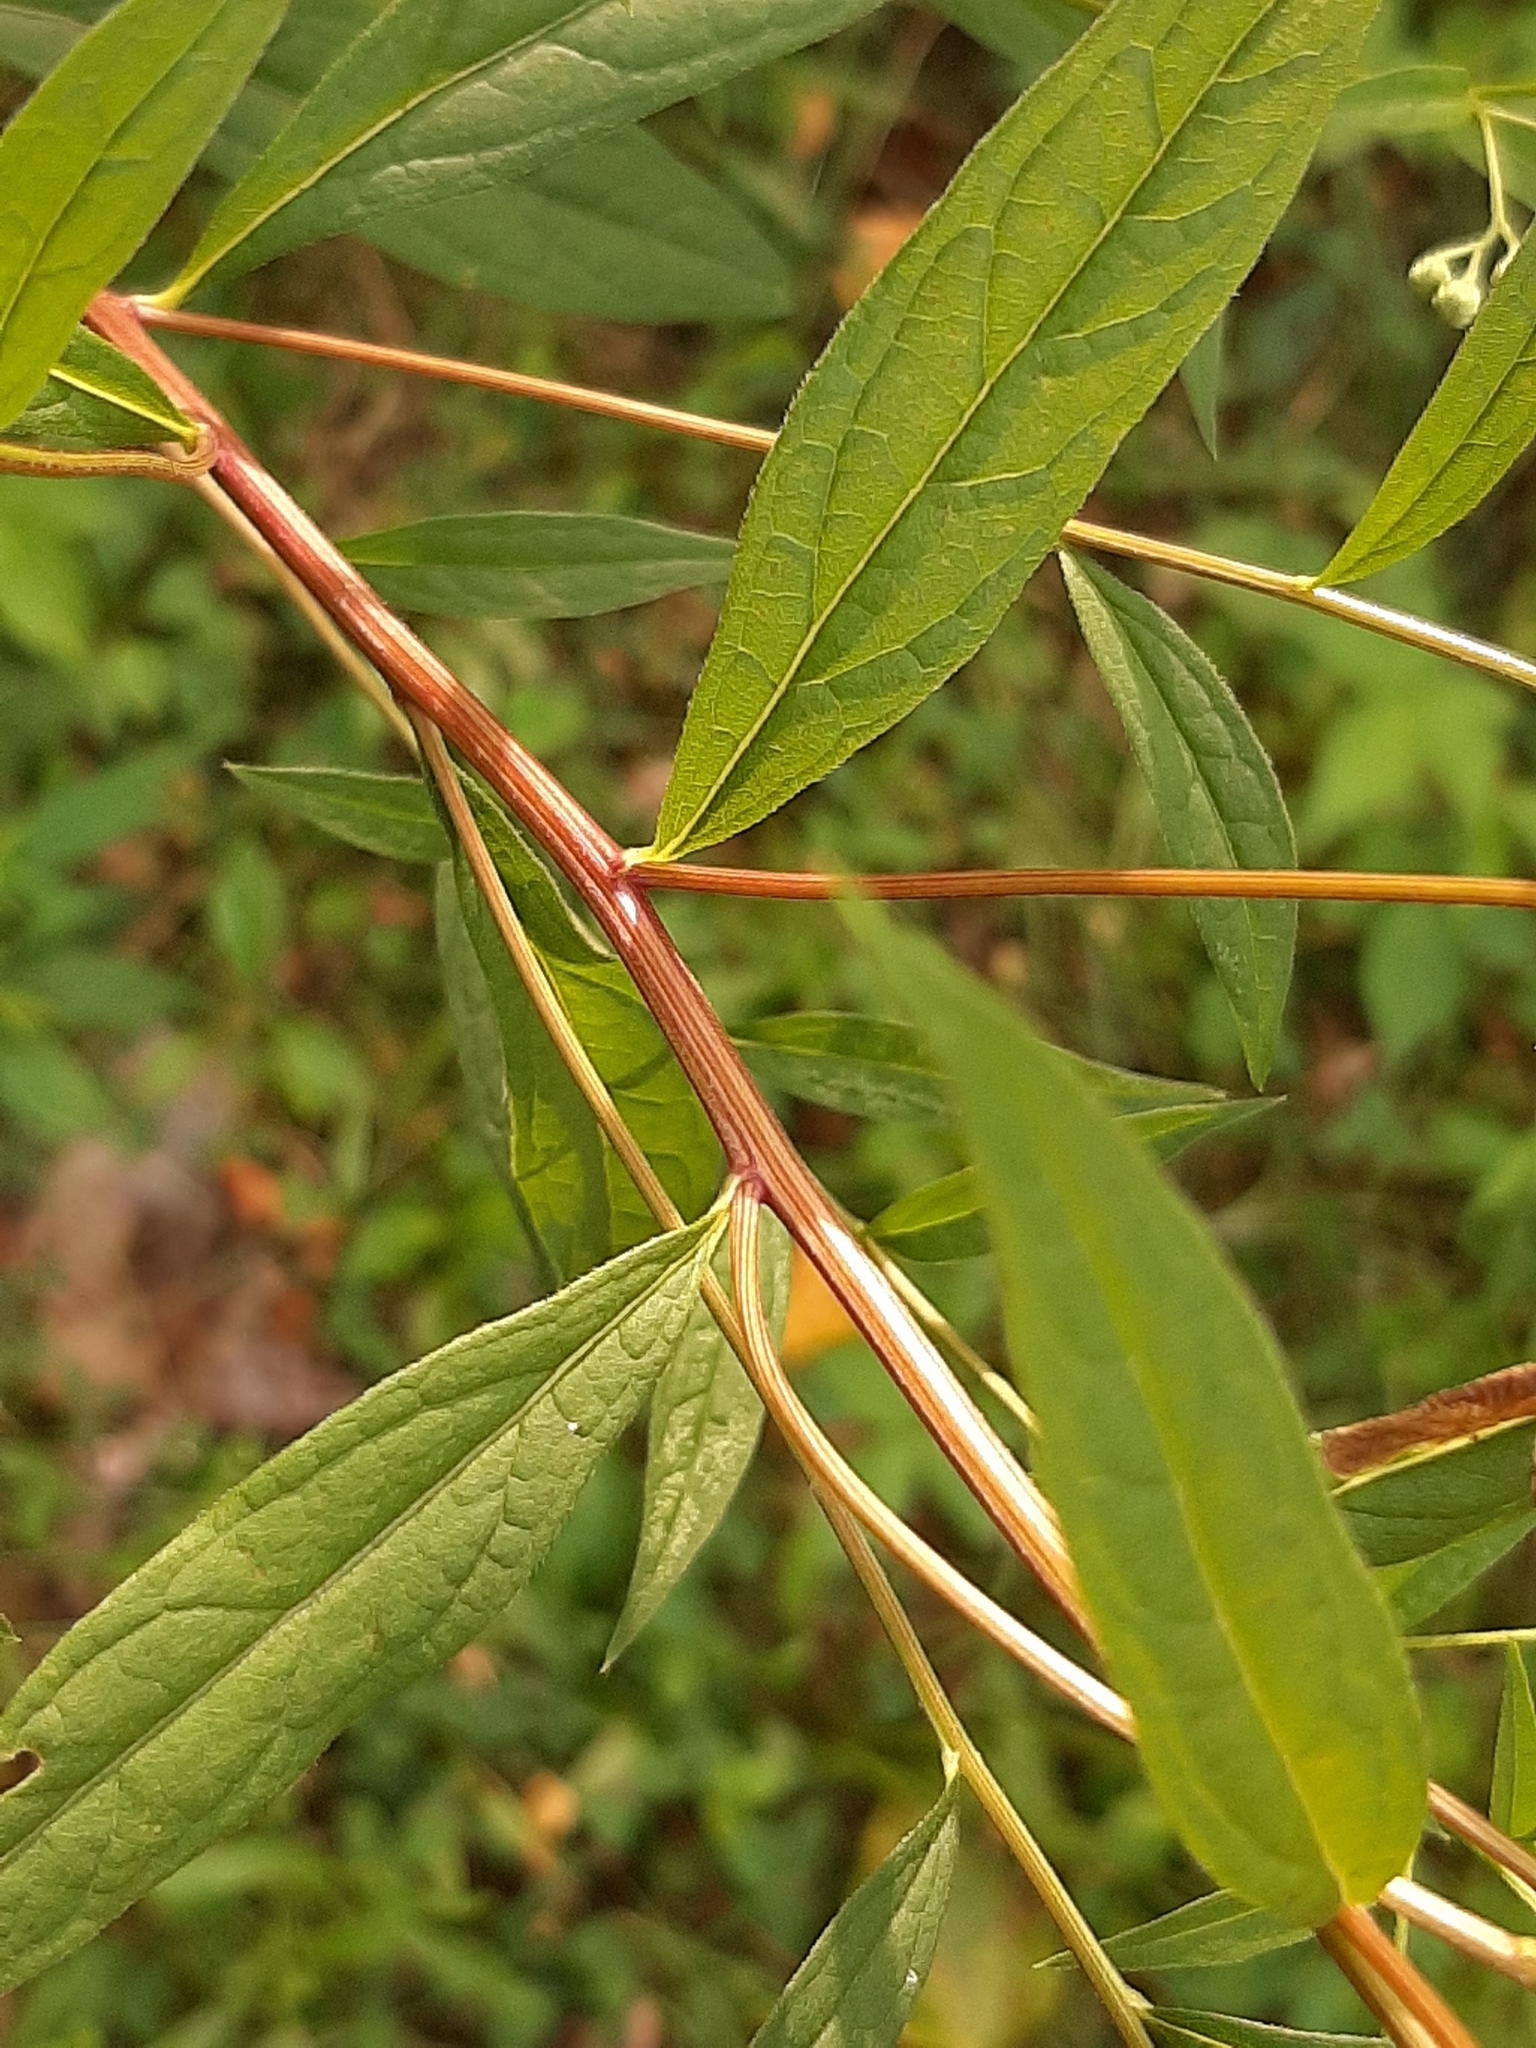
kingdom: Plantae
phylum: Tracheophyta
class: Magnoliopsida
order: Asterales
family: Asteraceae
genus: Doellingeria
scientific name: Doellingeria umbellata
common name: Flat-top white aster
